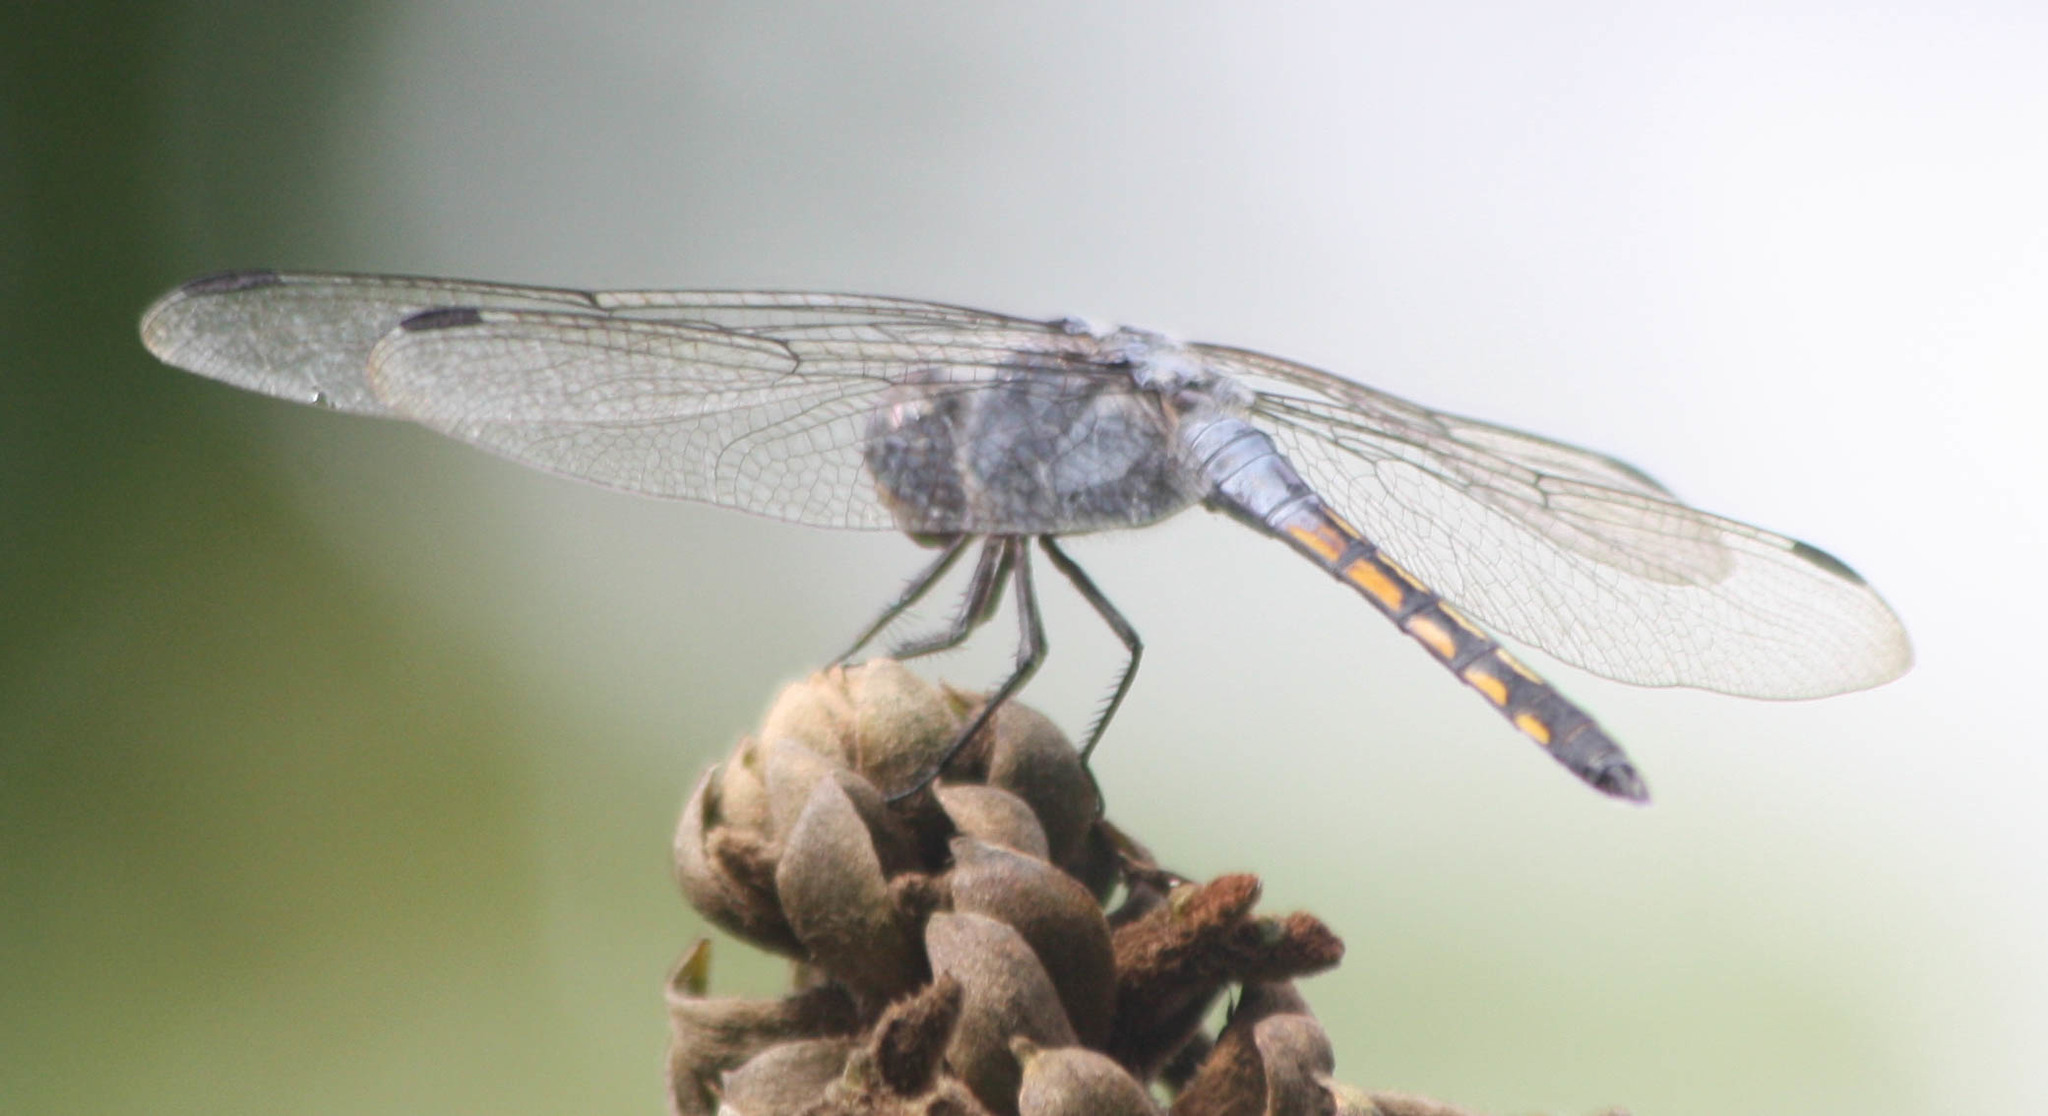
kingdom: Animalia
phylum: Arthropoda
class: Insecta
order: Odonata
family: Libellulidae
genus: Potamarcha
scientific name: Potamarcha congener
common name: Blue chaser
